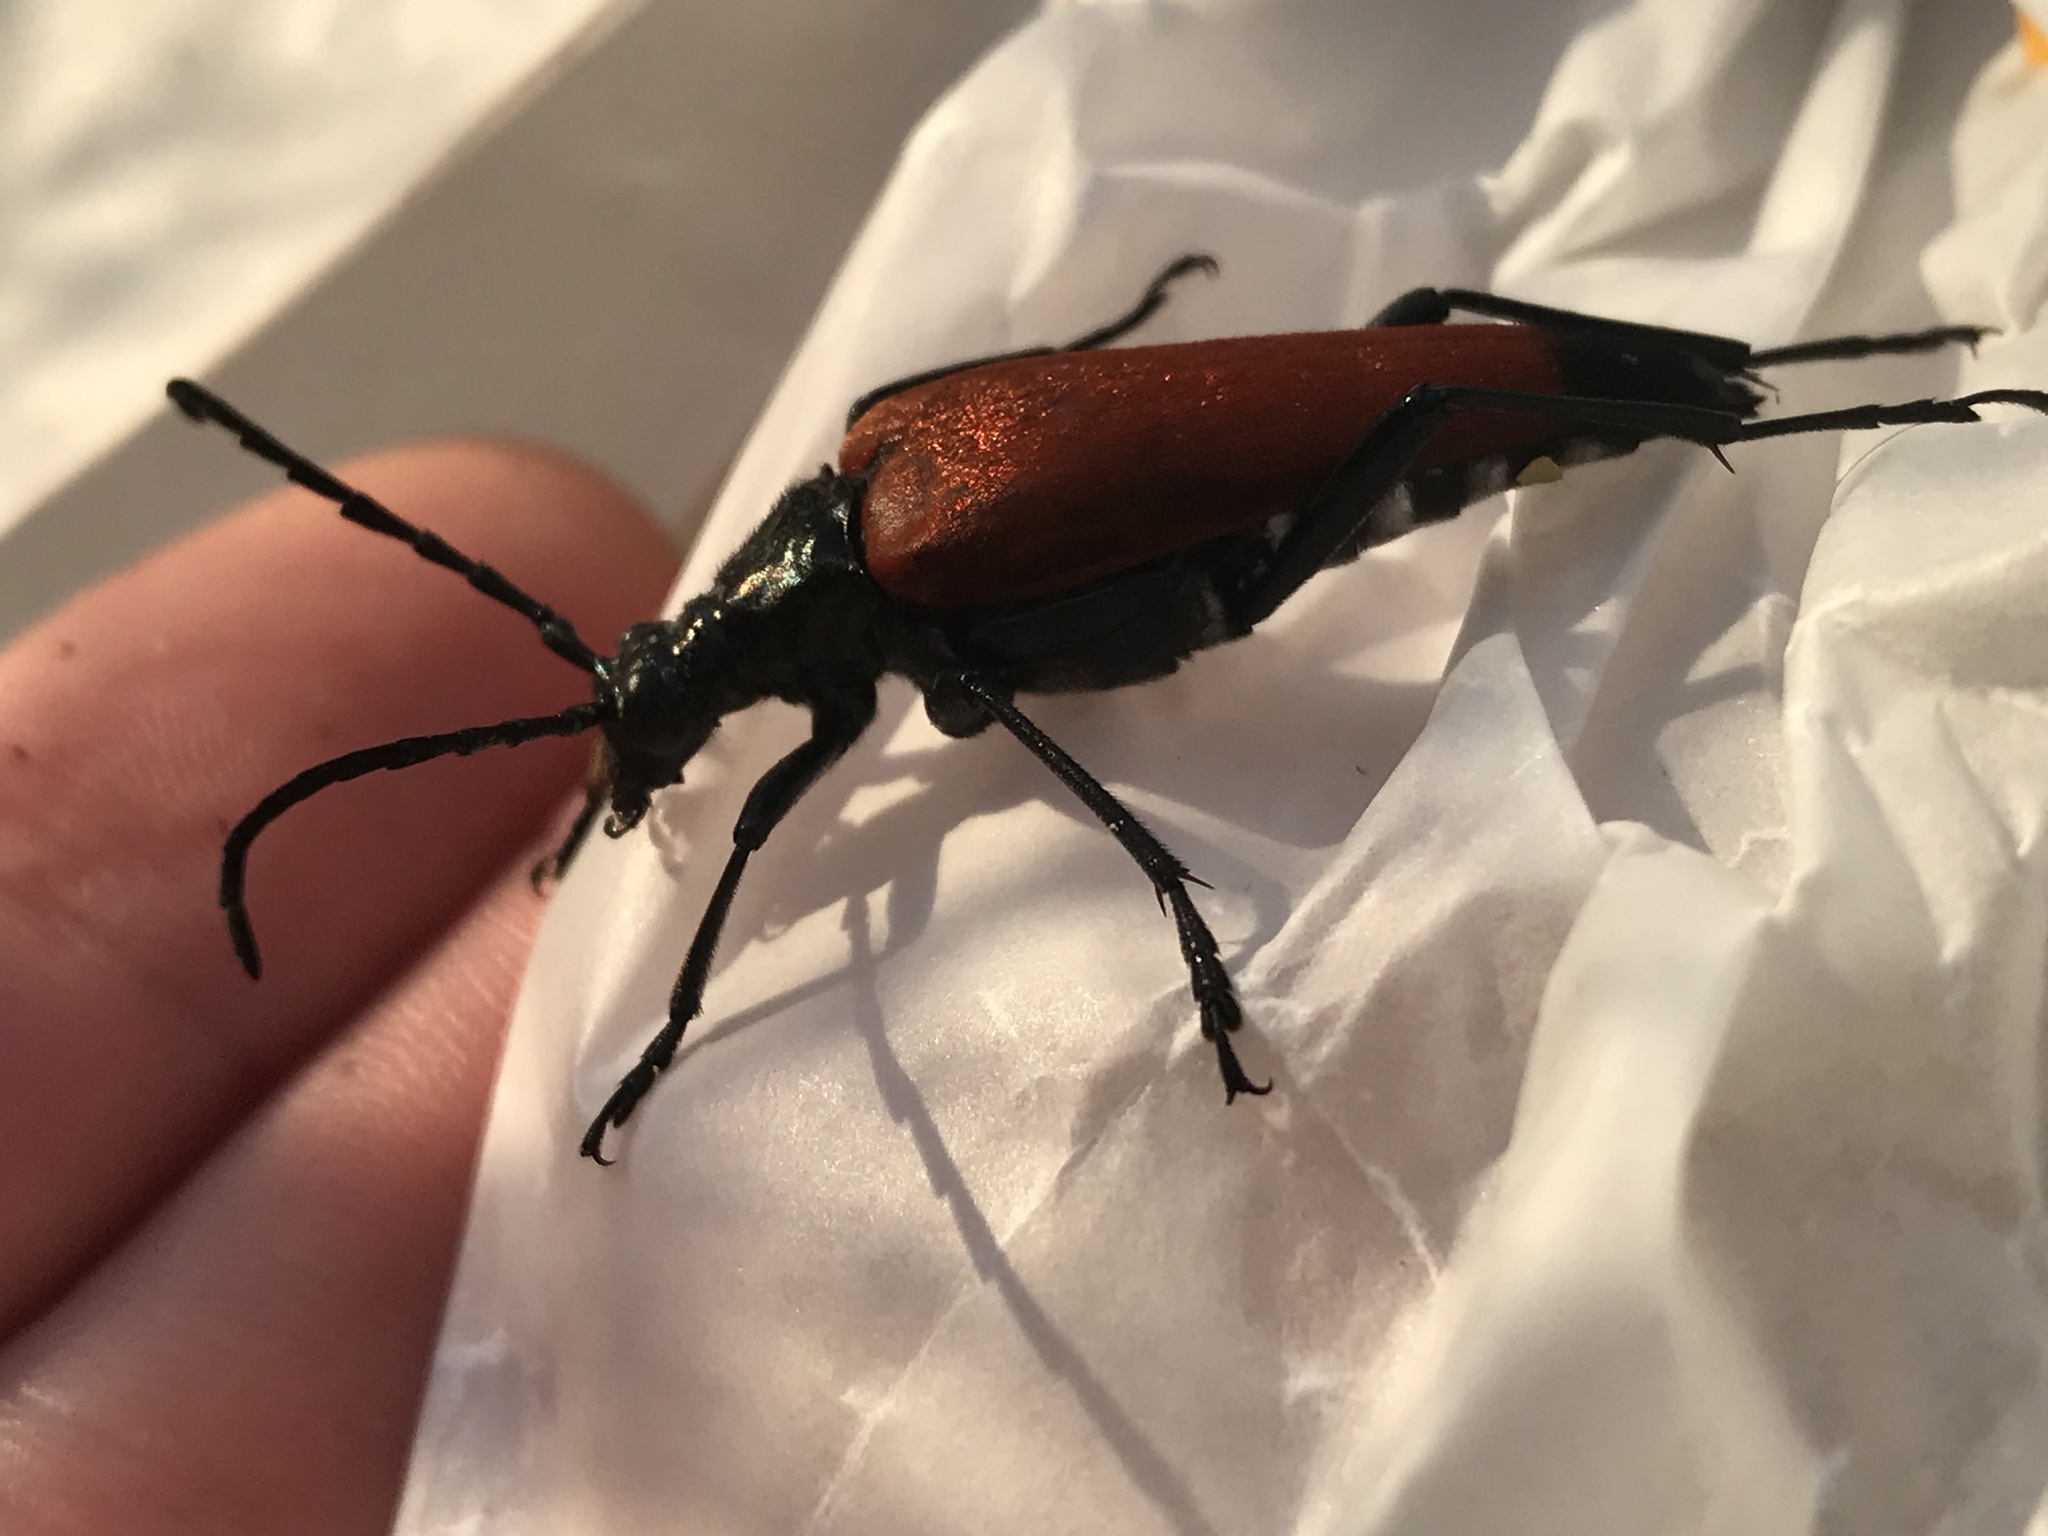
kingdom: Animalia
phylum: Arthropoda
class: Insecta
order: Coleoptera
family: Cerambycidae
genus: Stenelytrana
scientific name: Stenelytrana emarginata
